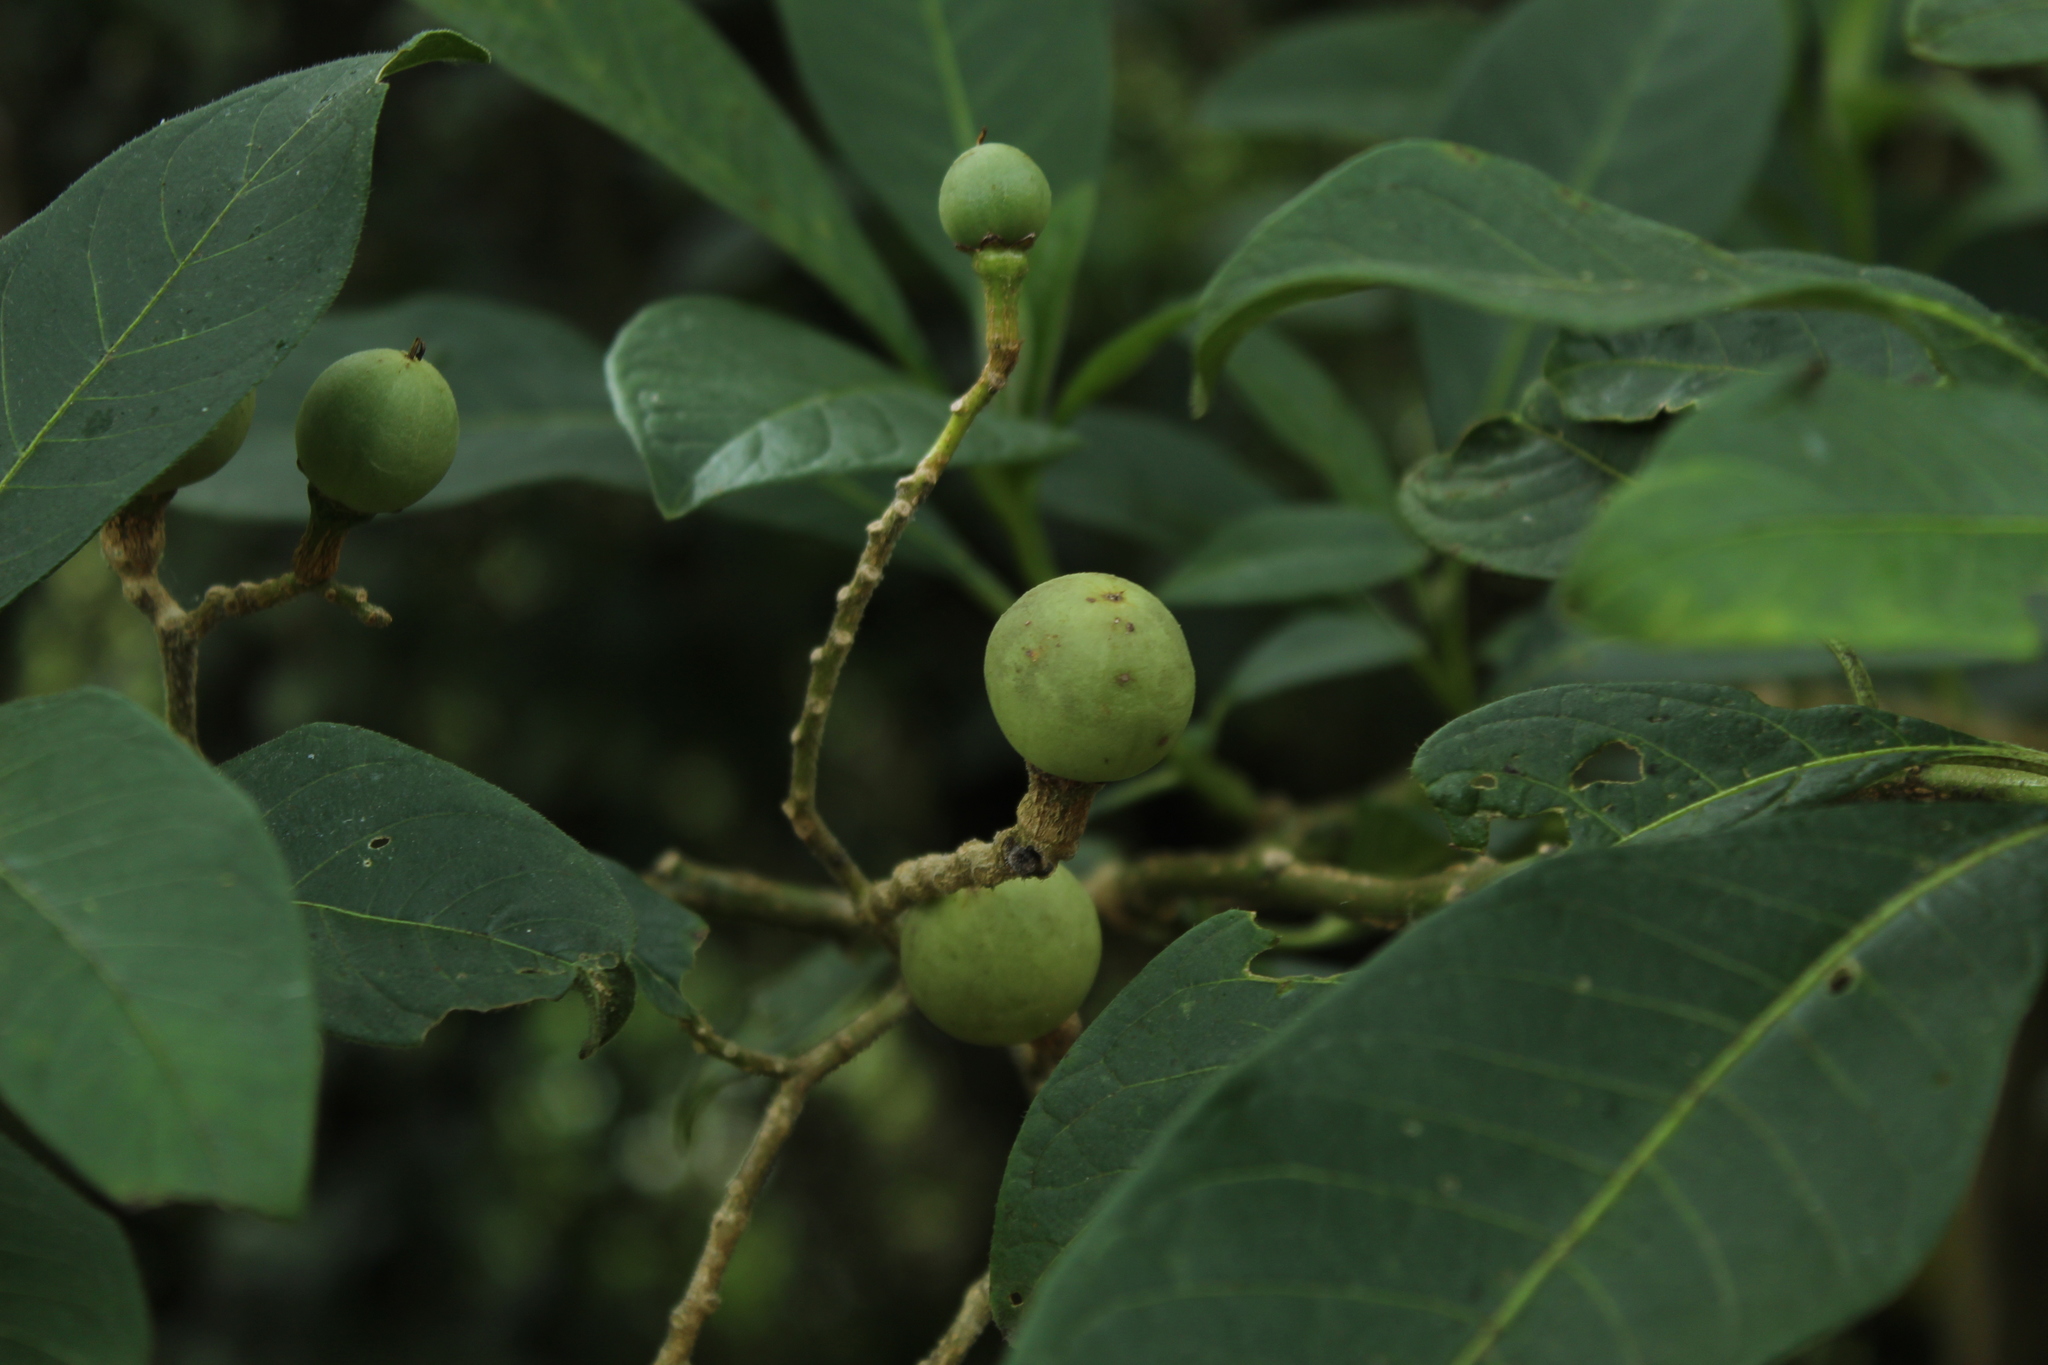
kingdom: Plantae
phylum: Tracheophyta
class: Magnoliopsida
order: Solanales
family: Solanaceae
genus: Solanum
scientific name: Solanum oblongifolium
